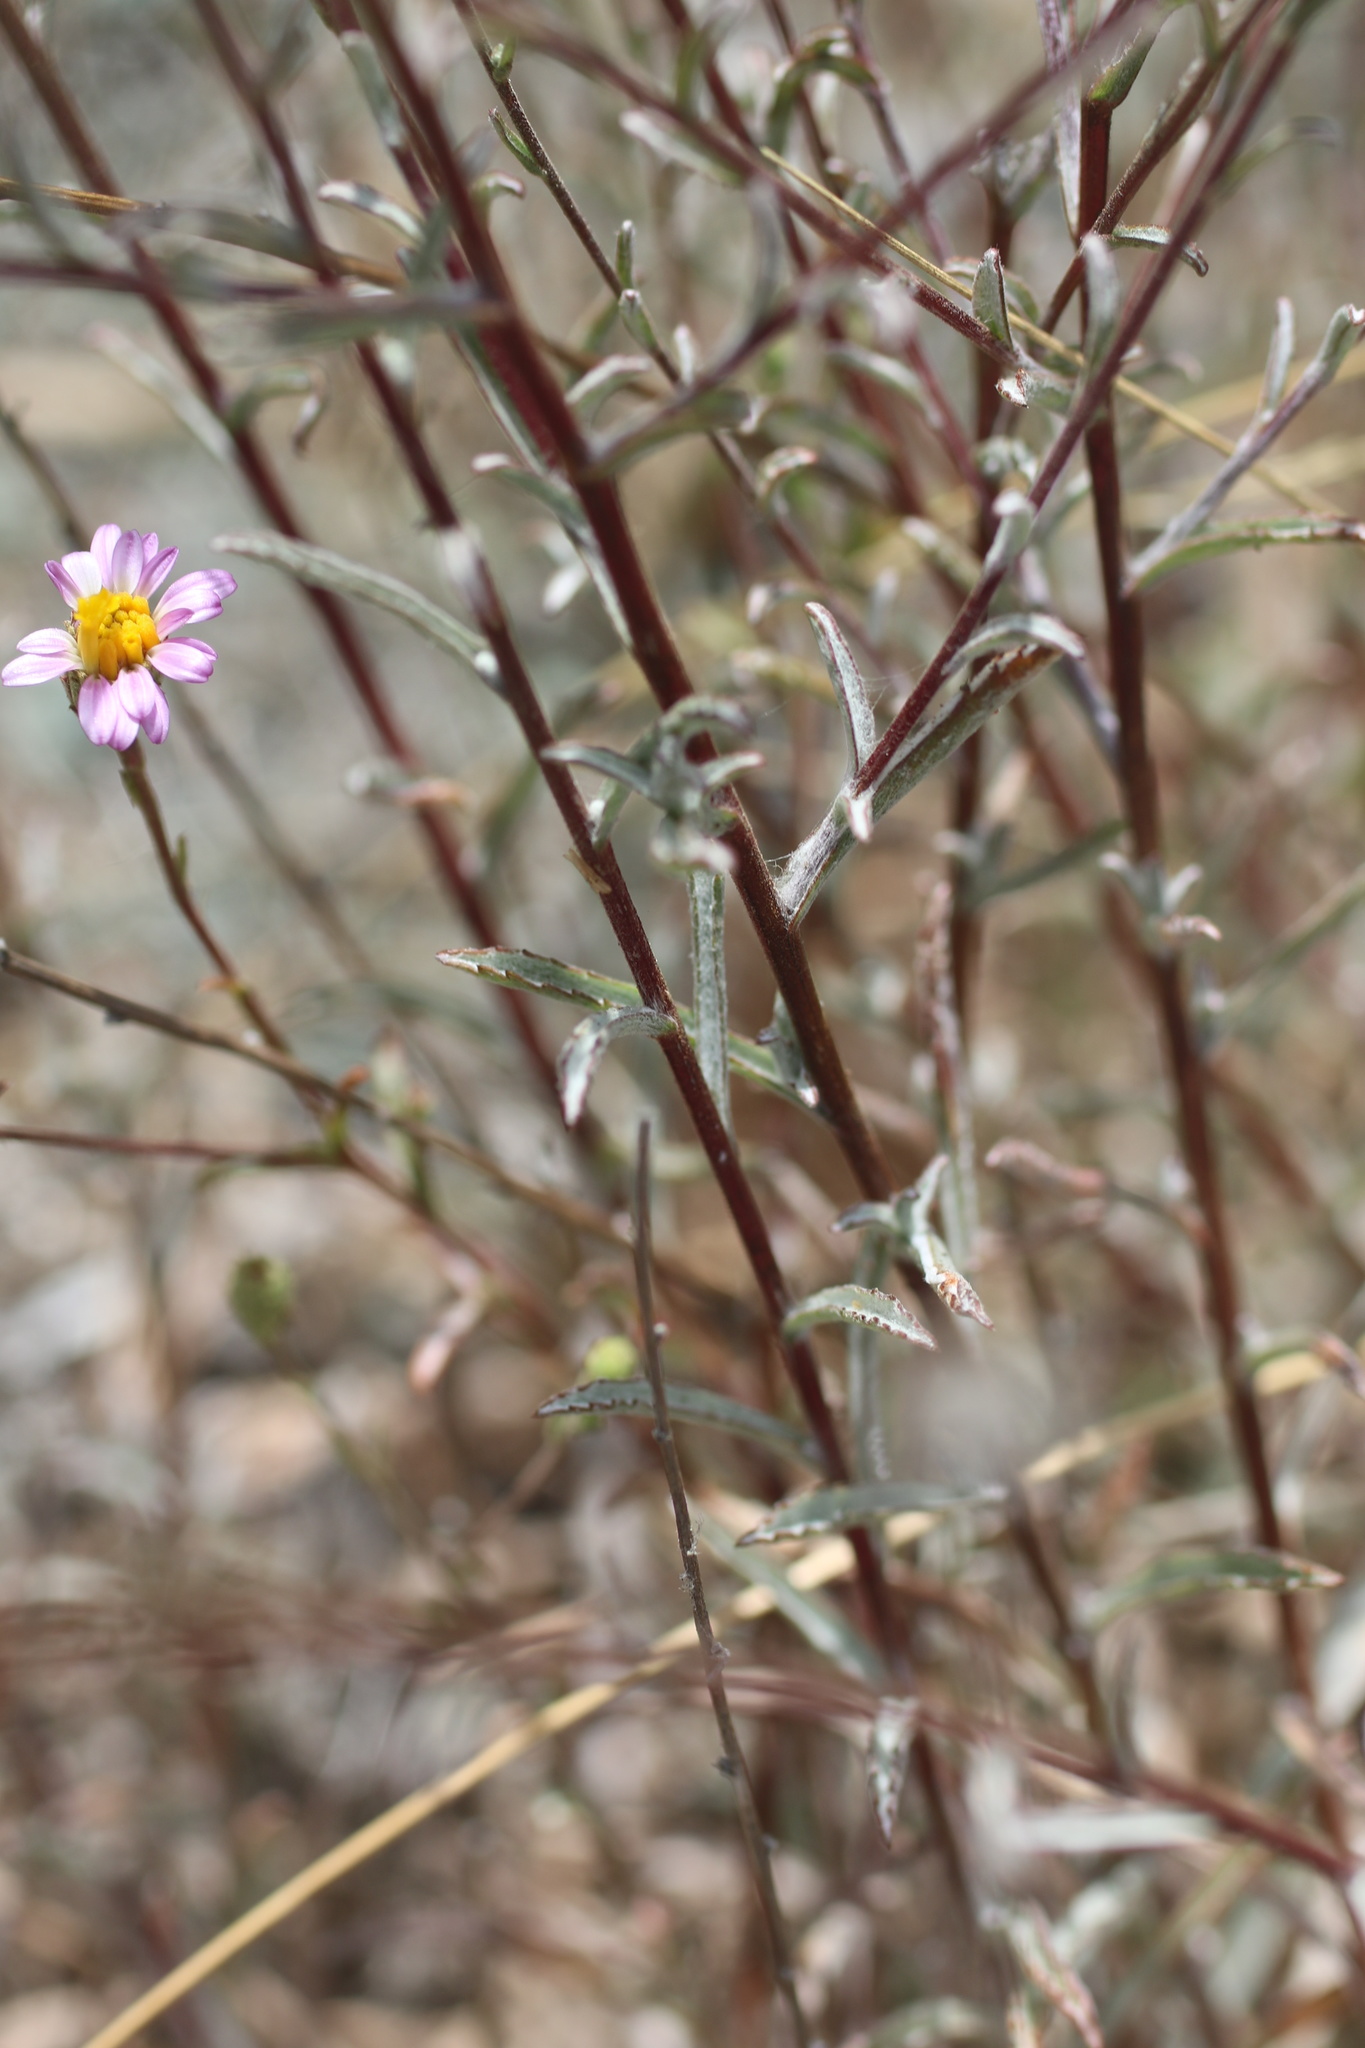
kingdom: Plantae
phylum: Tracheophyta
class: Magnoliopsida
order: Asterales
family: Asteraceae
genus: Corethrogyne
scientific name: Corethrogyne filaginifolia
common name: Sand-aster
